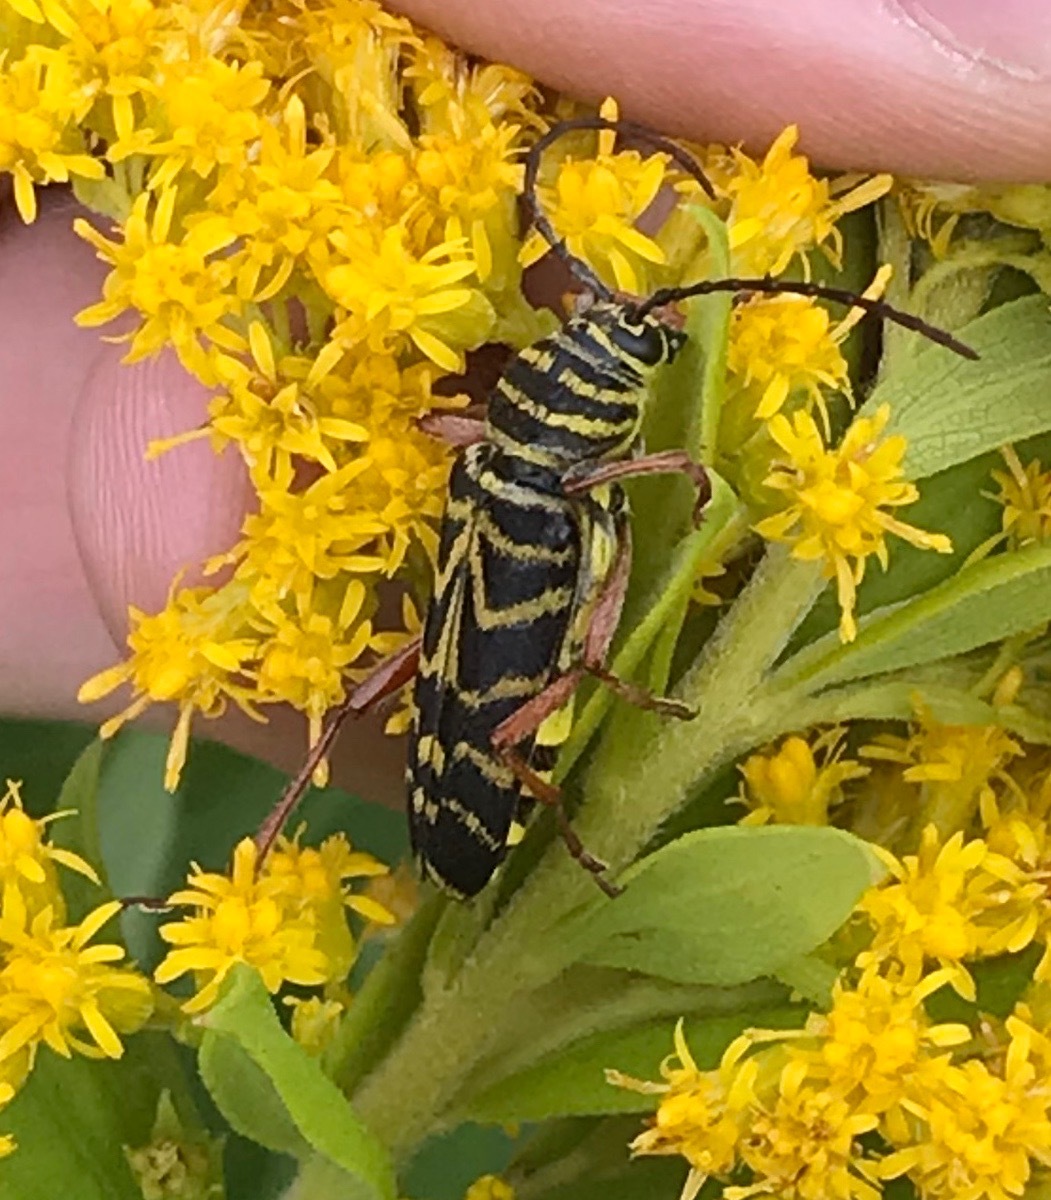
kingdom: Animalia
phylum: Arthropoda
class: Insecta
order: Coleoptera
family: Cerambycidae
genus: Megacyllene
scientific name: Megacyllene robiniae
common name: Locust borer
